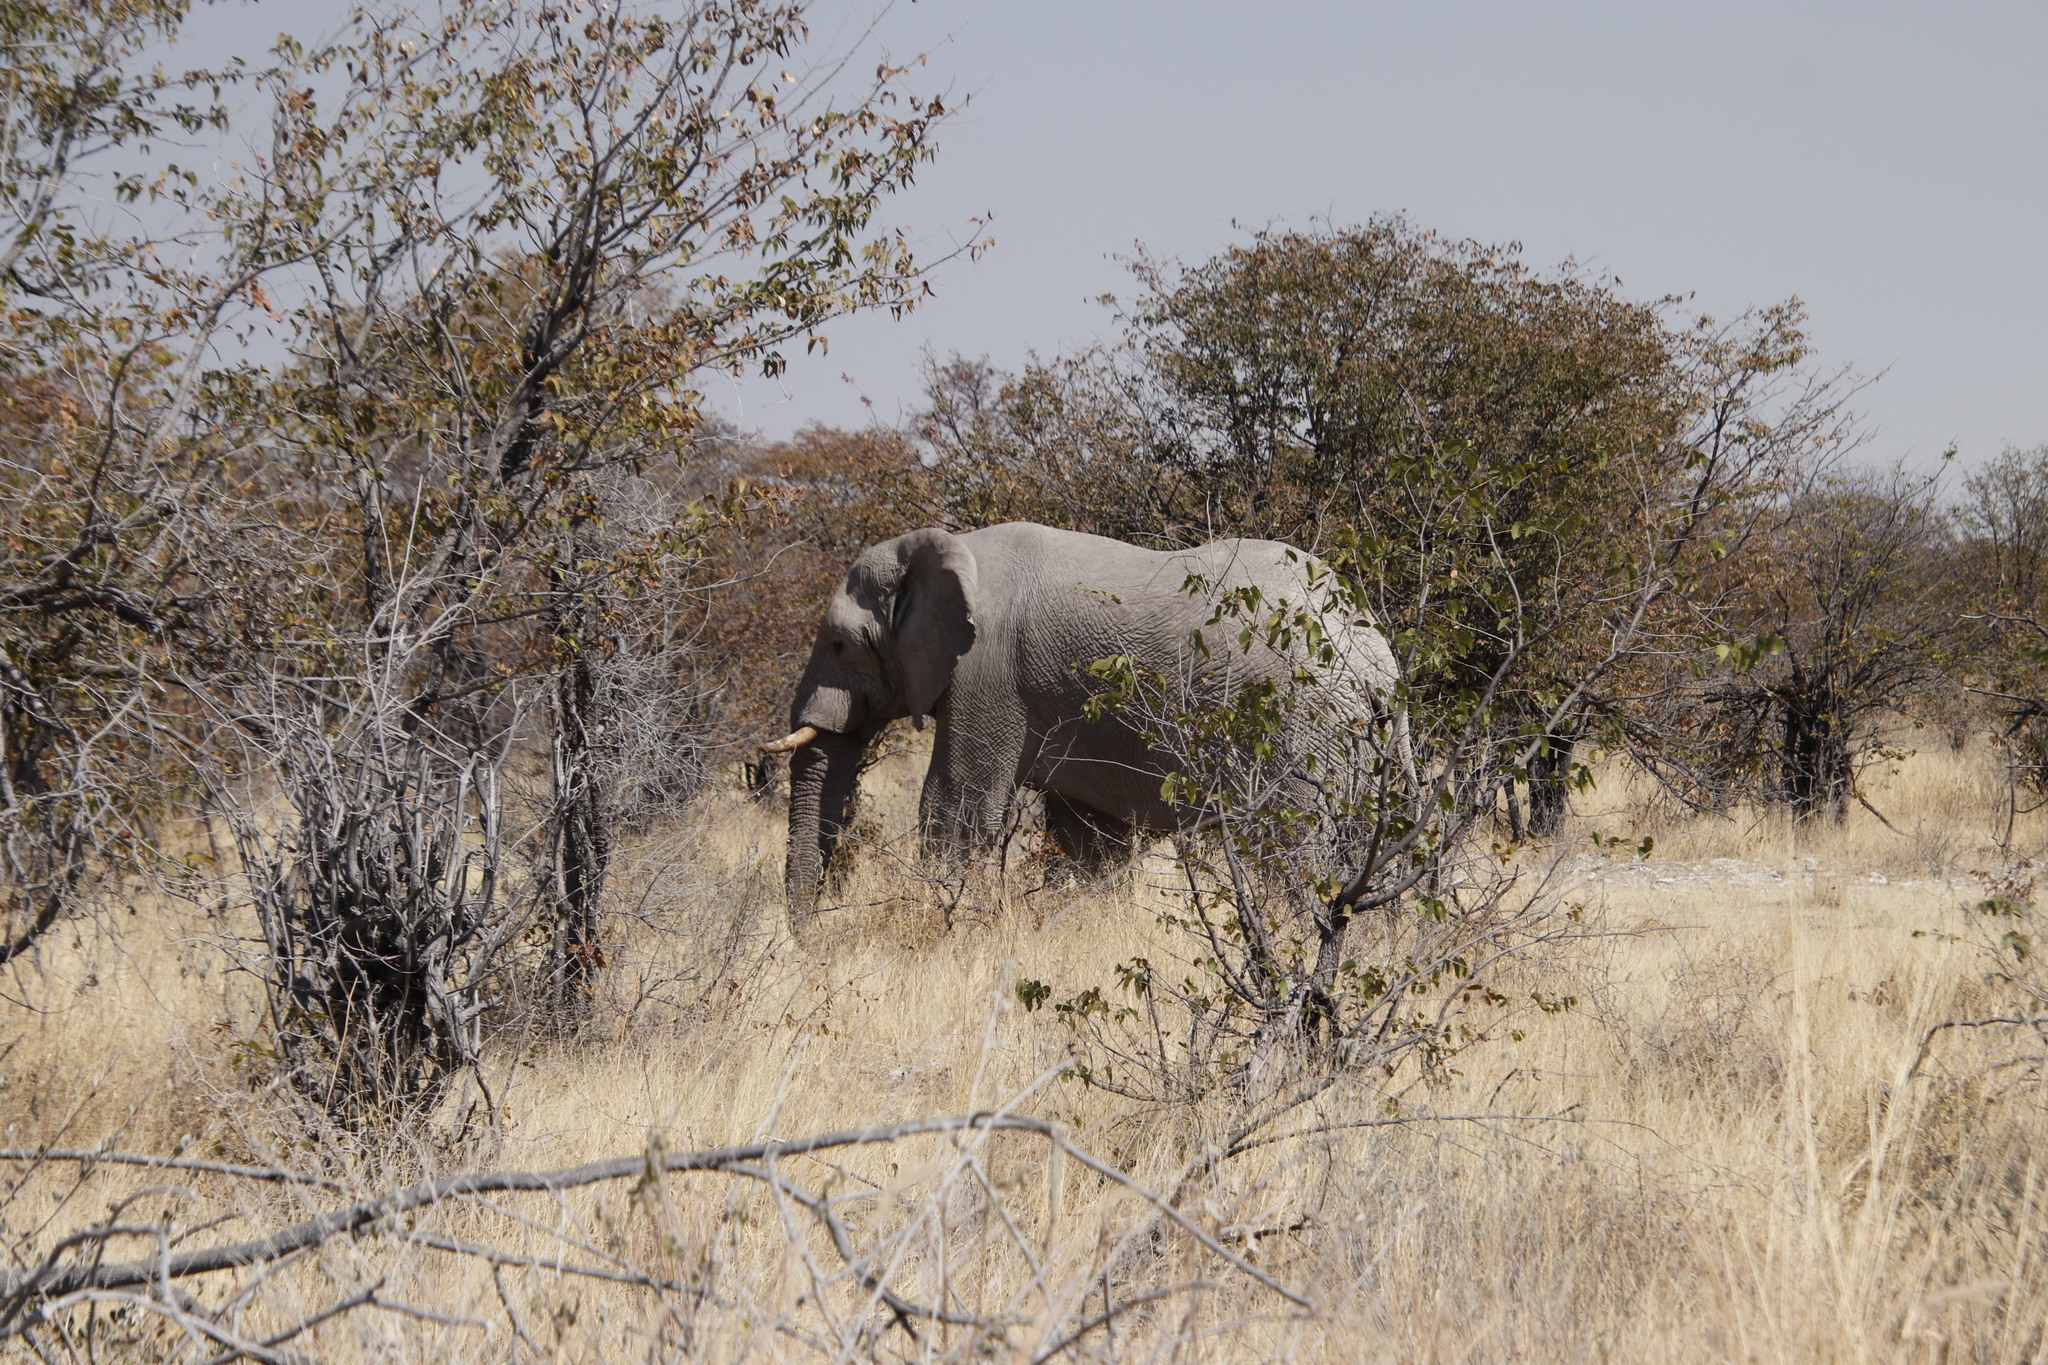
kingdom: Animalia
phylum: Chordata
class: Mammalia
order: Proboscidea
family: Elephantidae
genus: Loxodonta
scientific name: Loxodonta africana
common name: African elephant
